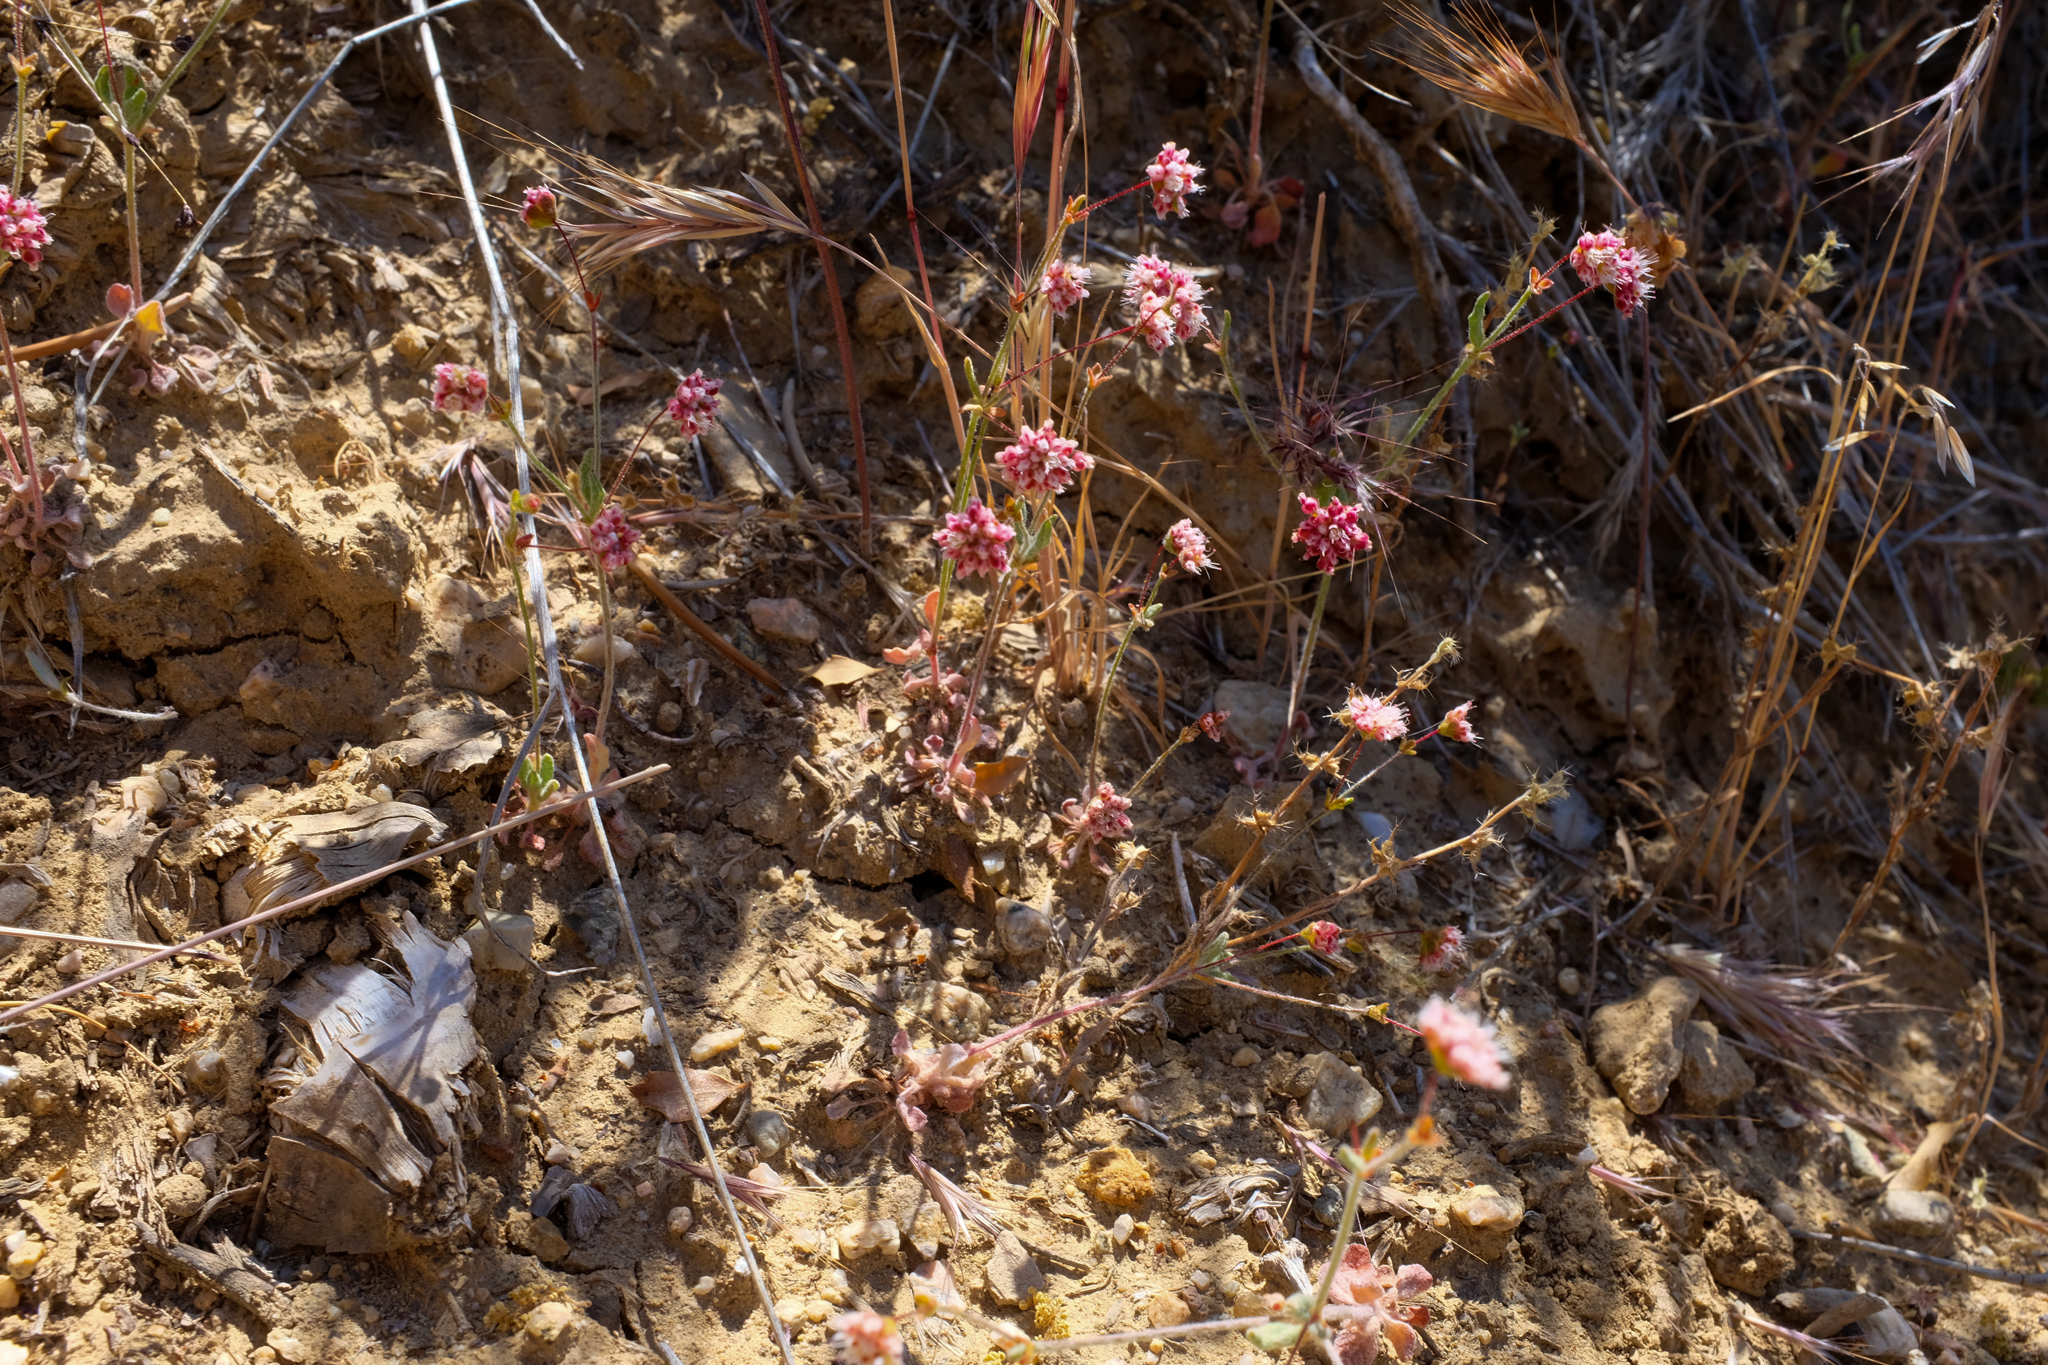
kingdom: Plantae
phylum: Tracheophyta
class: Magnoliopsida
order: Caryophyllales
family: Polygonaceae
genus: Eriogonum
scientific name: Eriogonum maculatum
